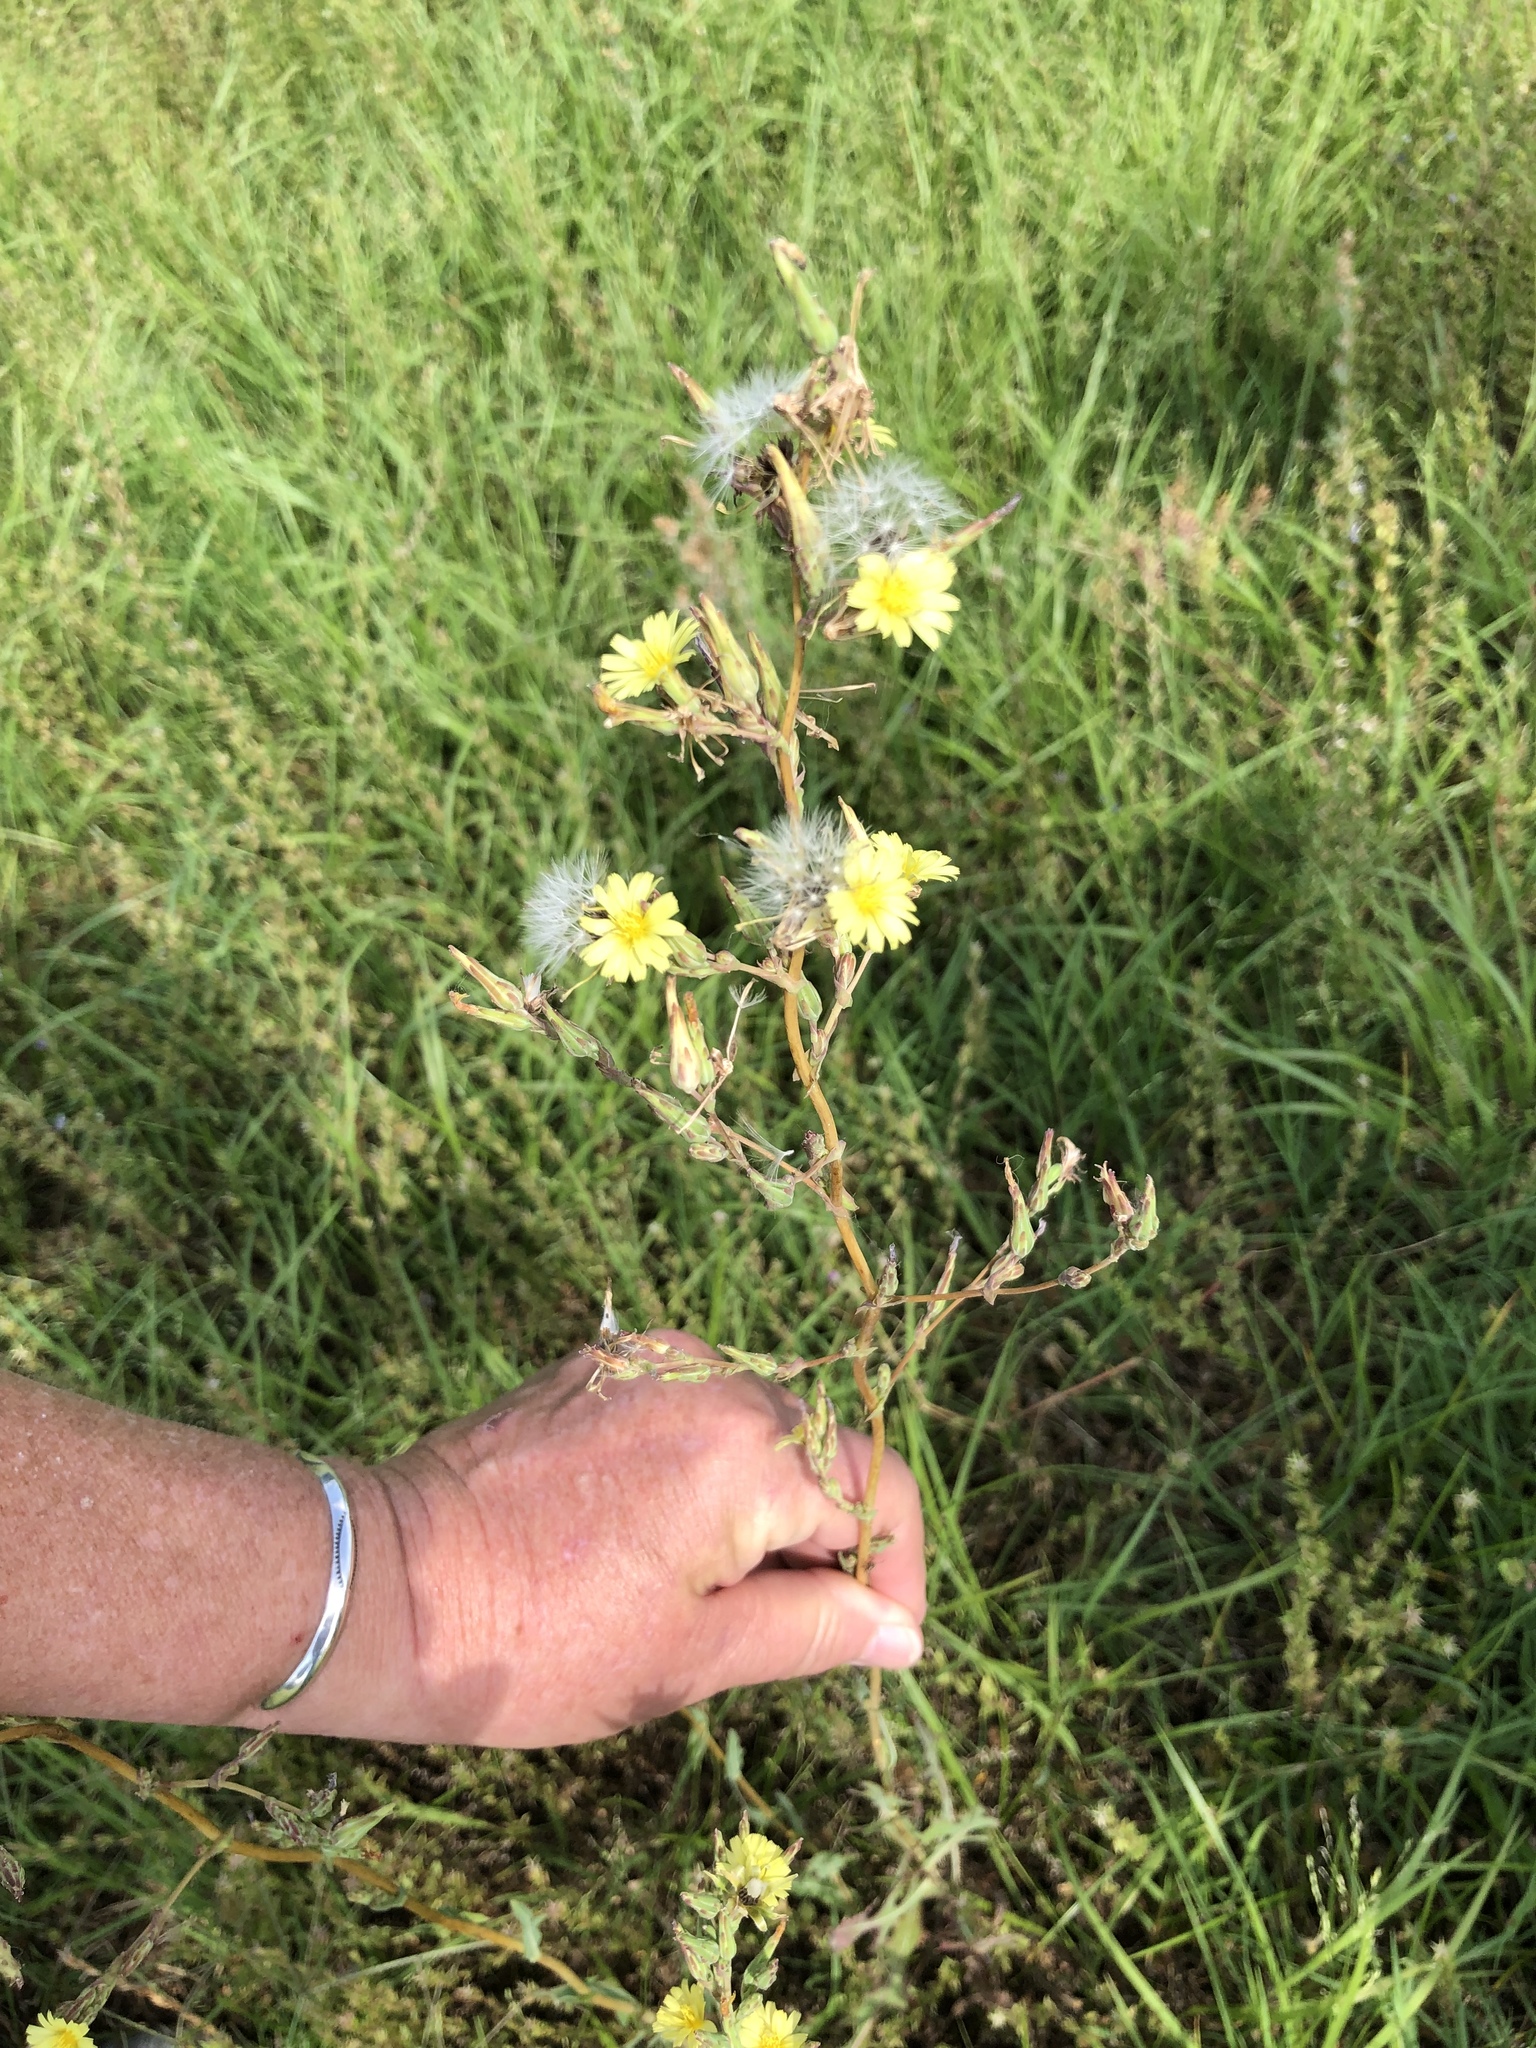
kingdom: Plantae
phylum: Tracheophyta
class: Magnoliopsida
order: Asterales
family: Asteraceae
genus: Lactuca
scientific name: Lactuca serriola
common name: Prickly lettuce
